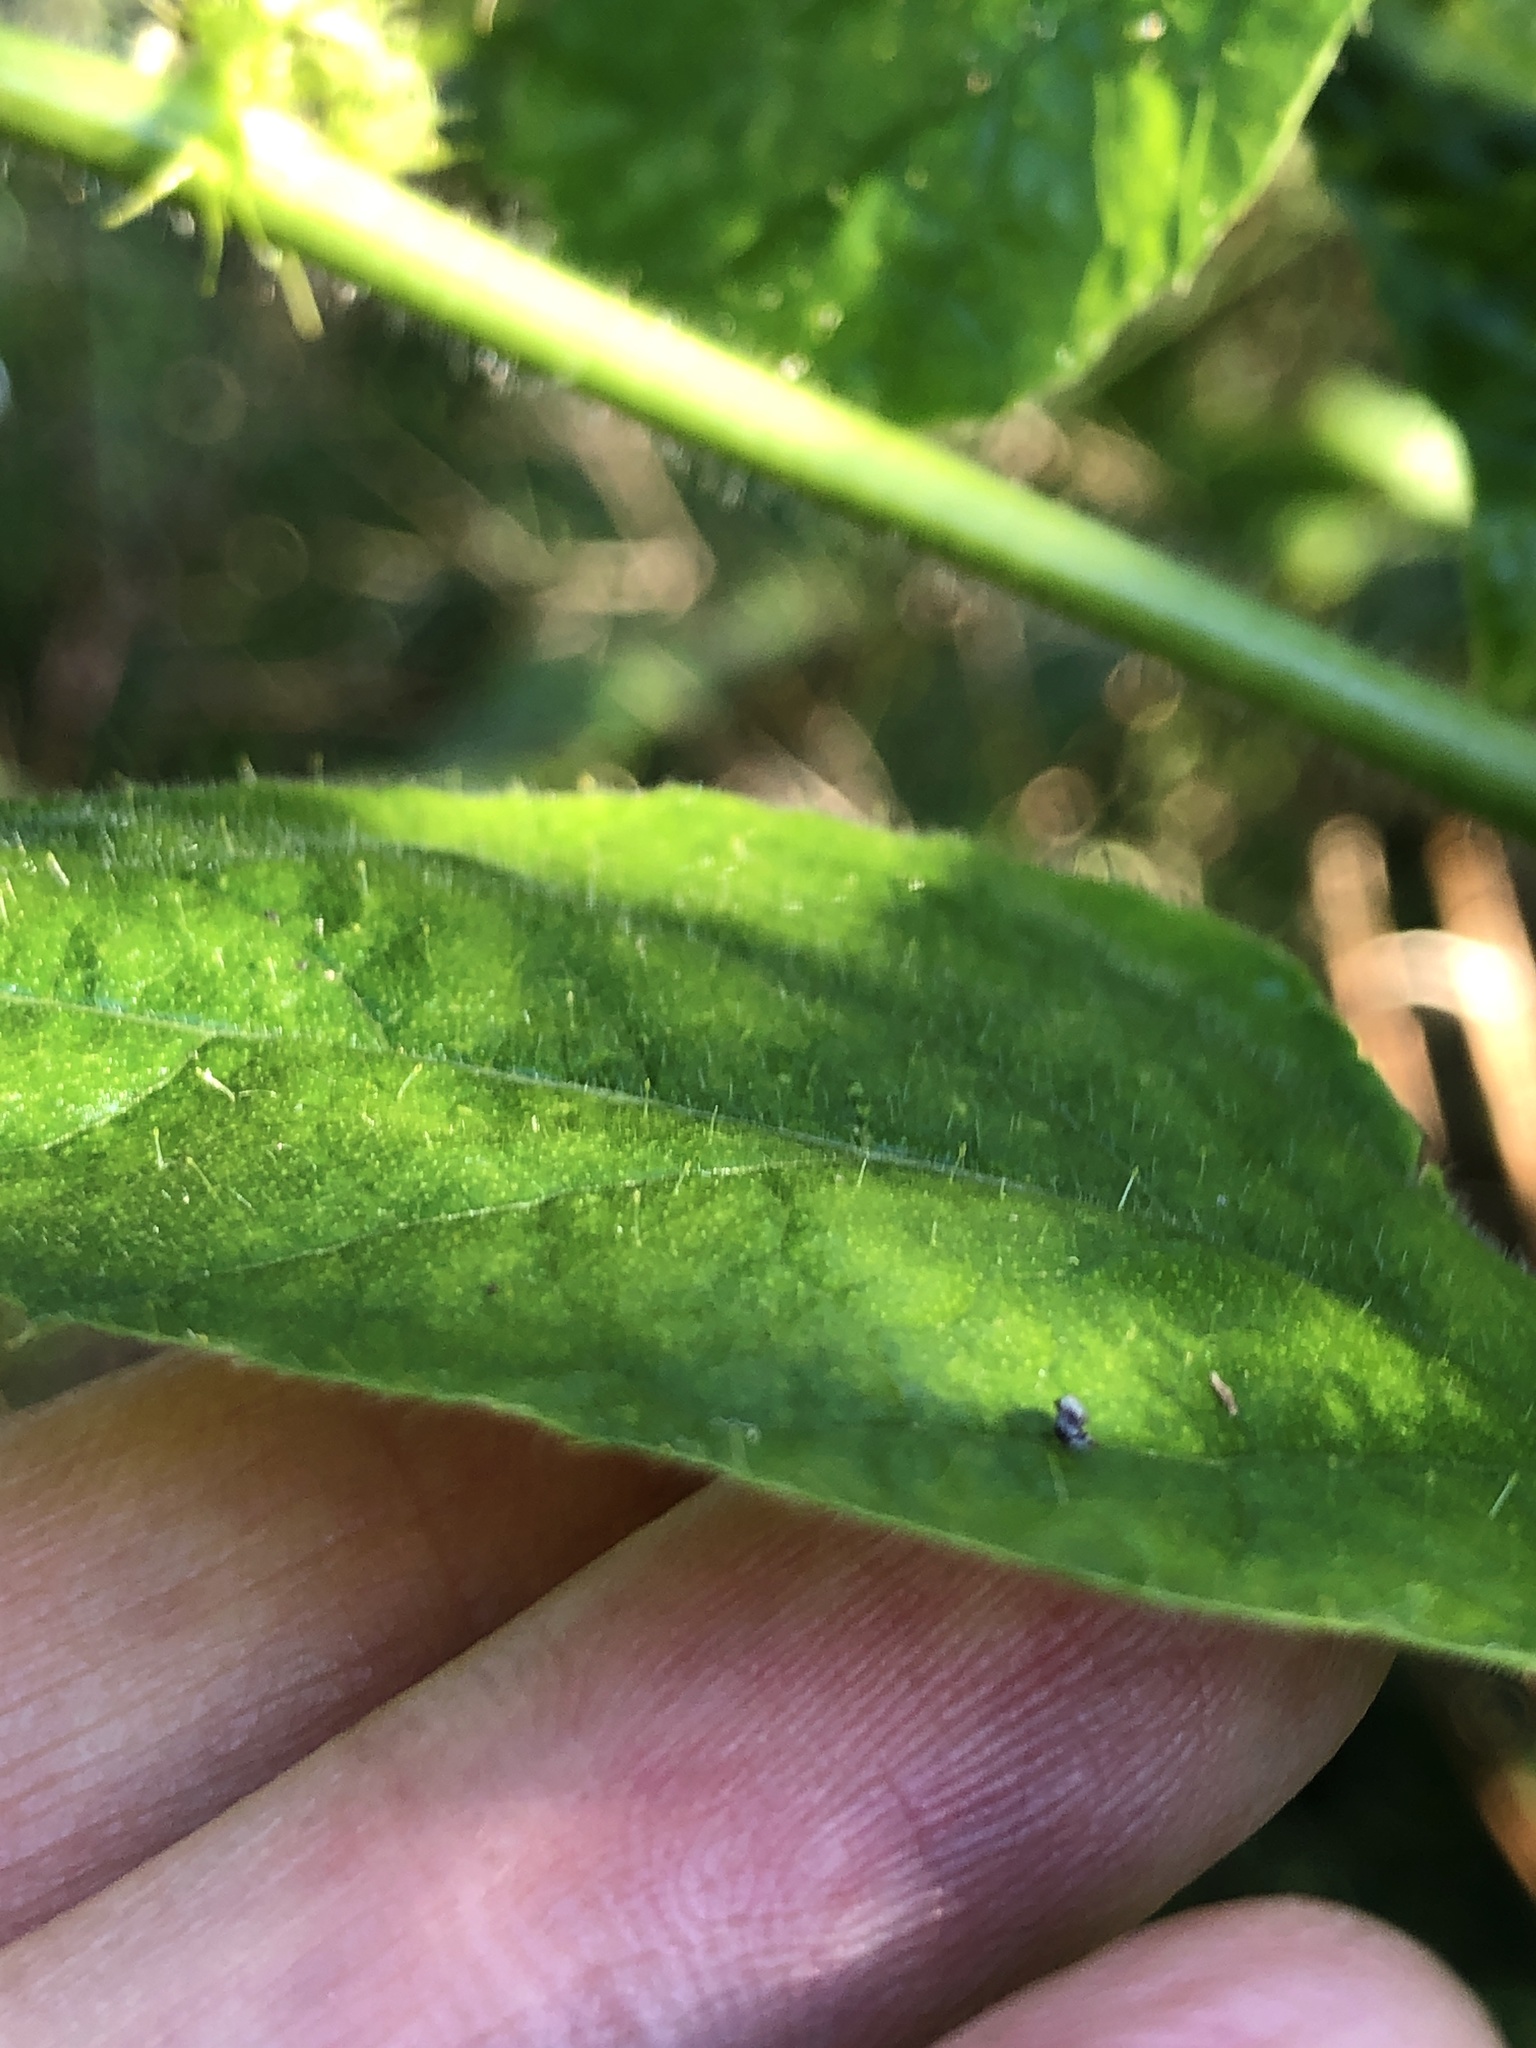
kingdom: Plantae
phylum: Tracheophyta
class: Magnoliopsida
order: Malpighiales
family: Passifloraceae
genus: Passiflora
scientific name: Passiflora foetida
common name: Fetid passionflower
